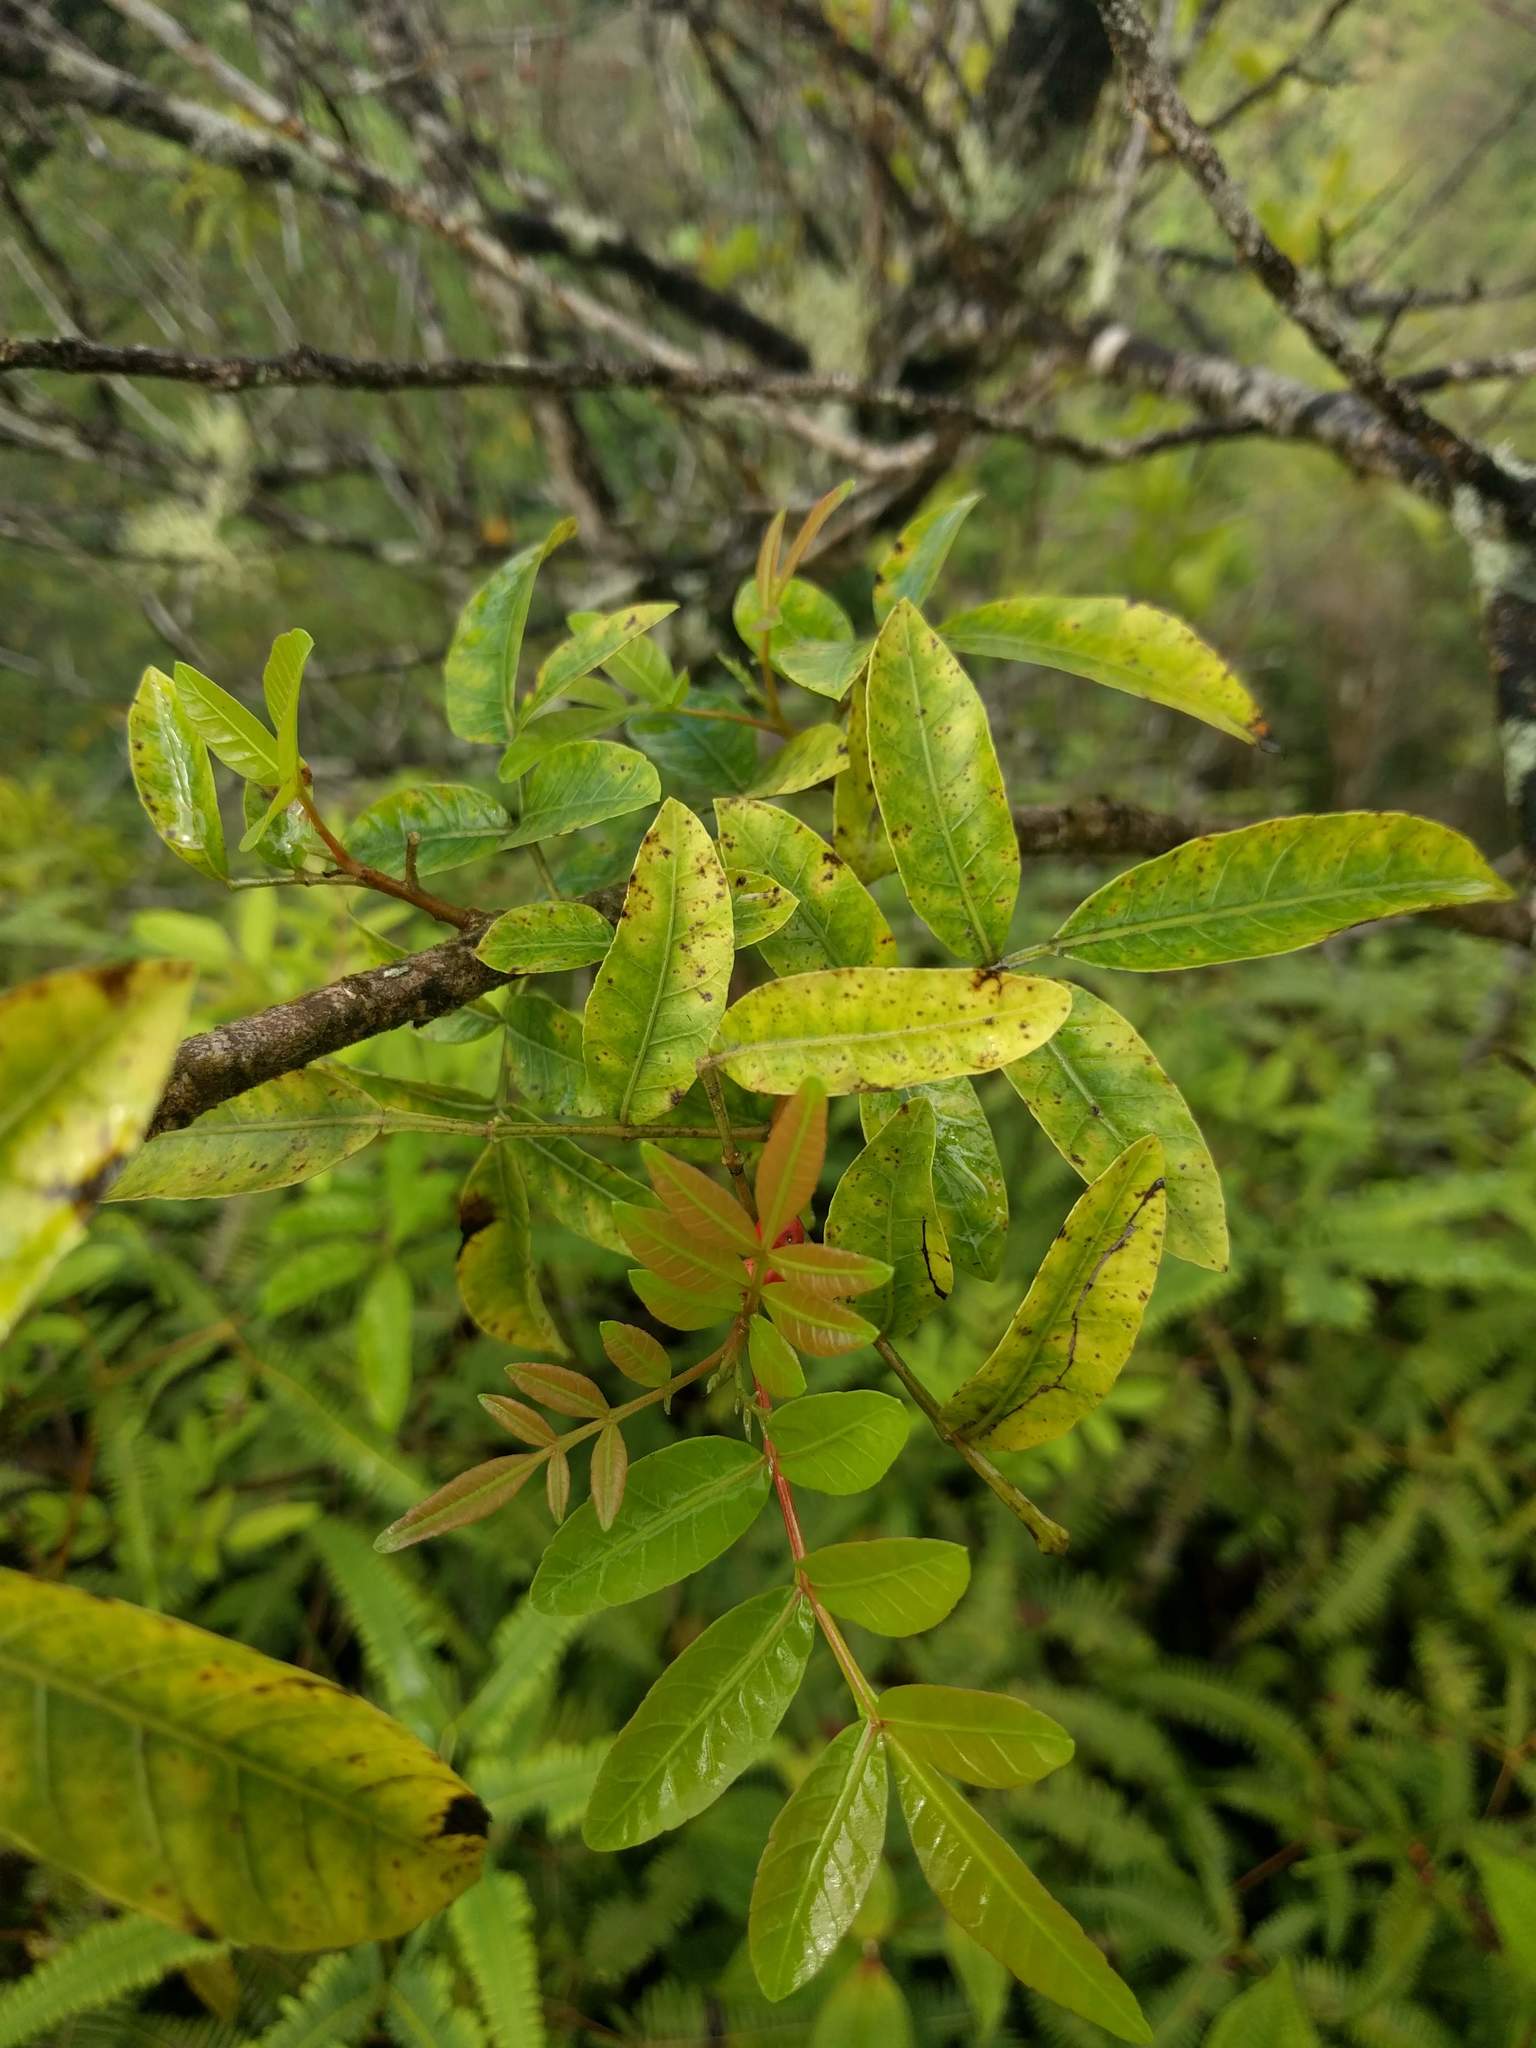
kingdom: Plantae
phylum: Tracheophyta
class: Magnoliopsida
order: Sapindales
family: Anacardiaceae
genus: Schinus
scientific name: Schinus terebinthifolia
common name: Brazilian peppertree
